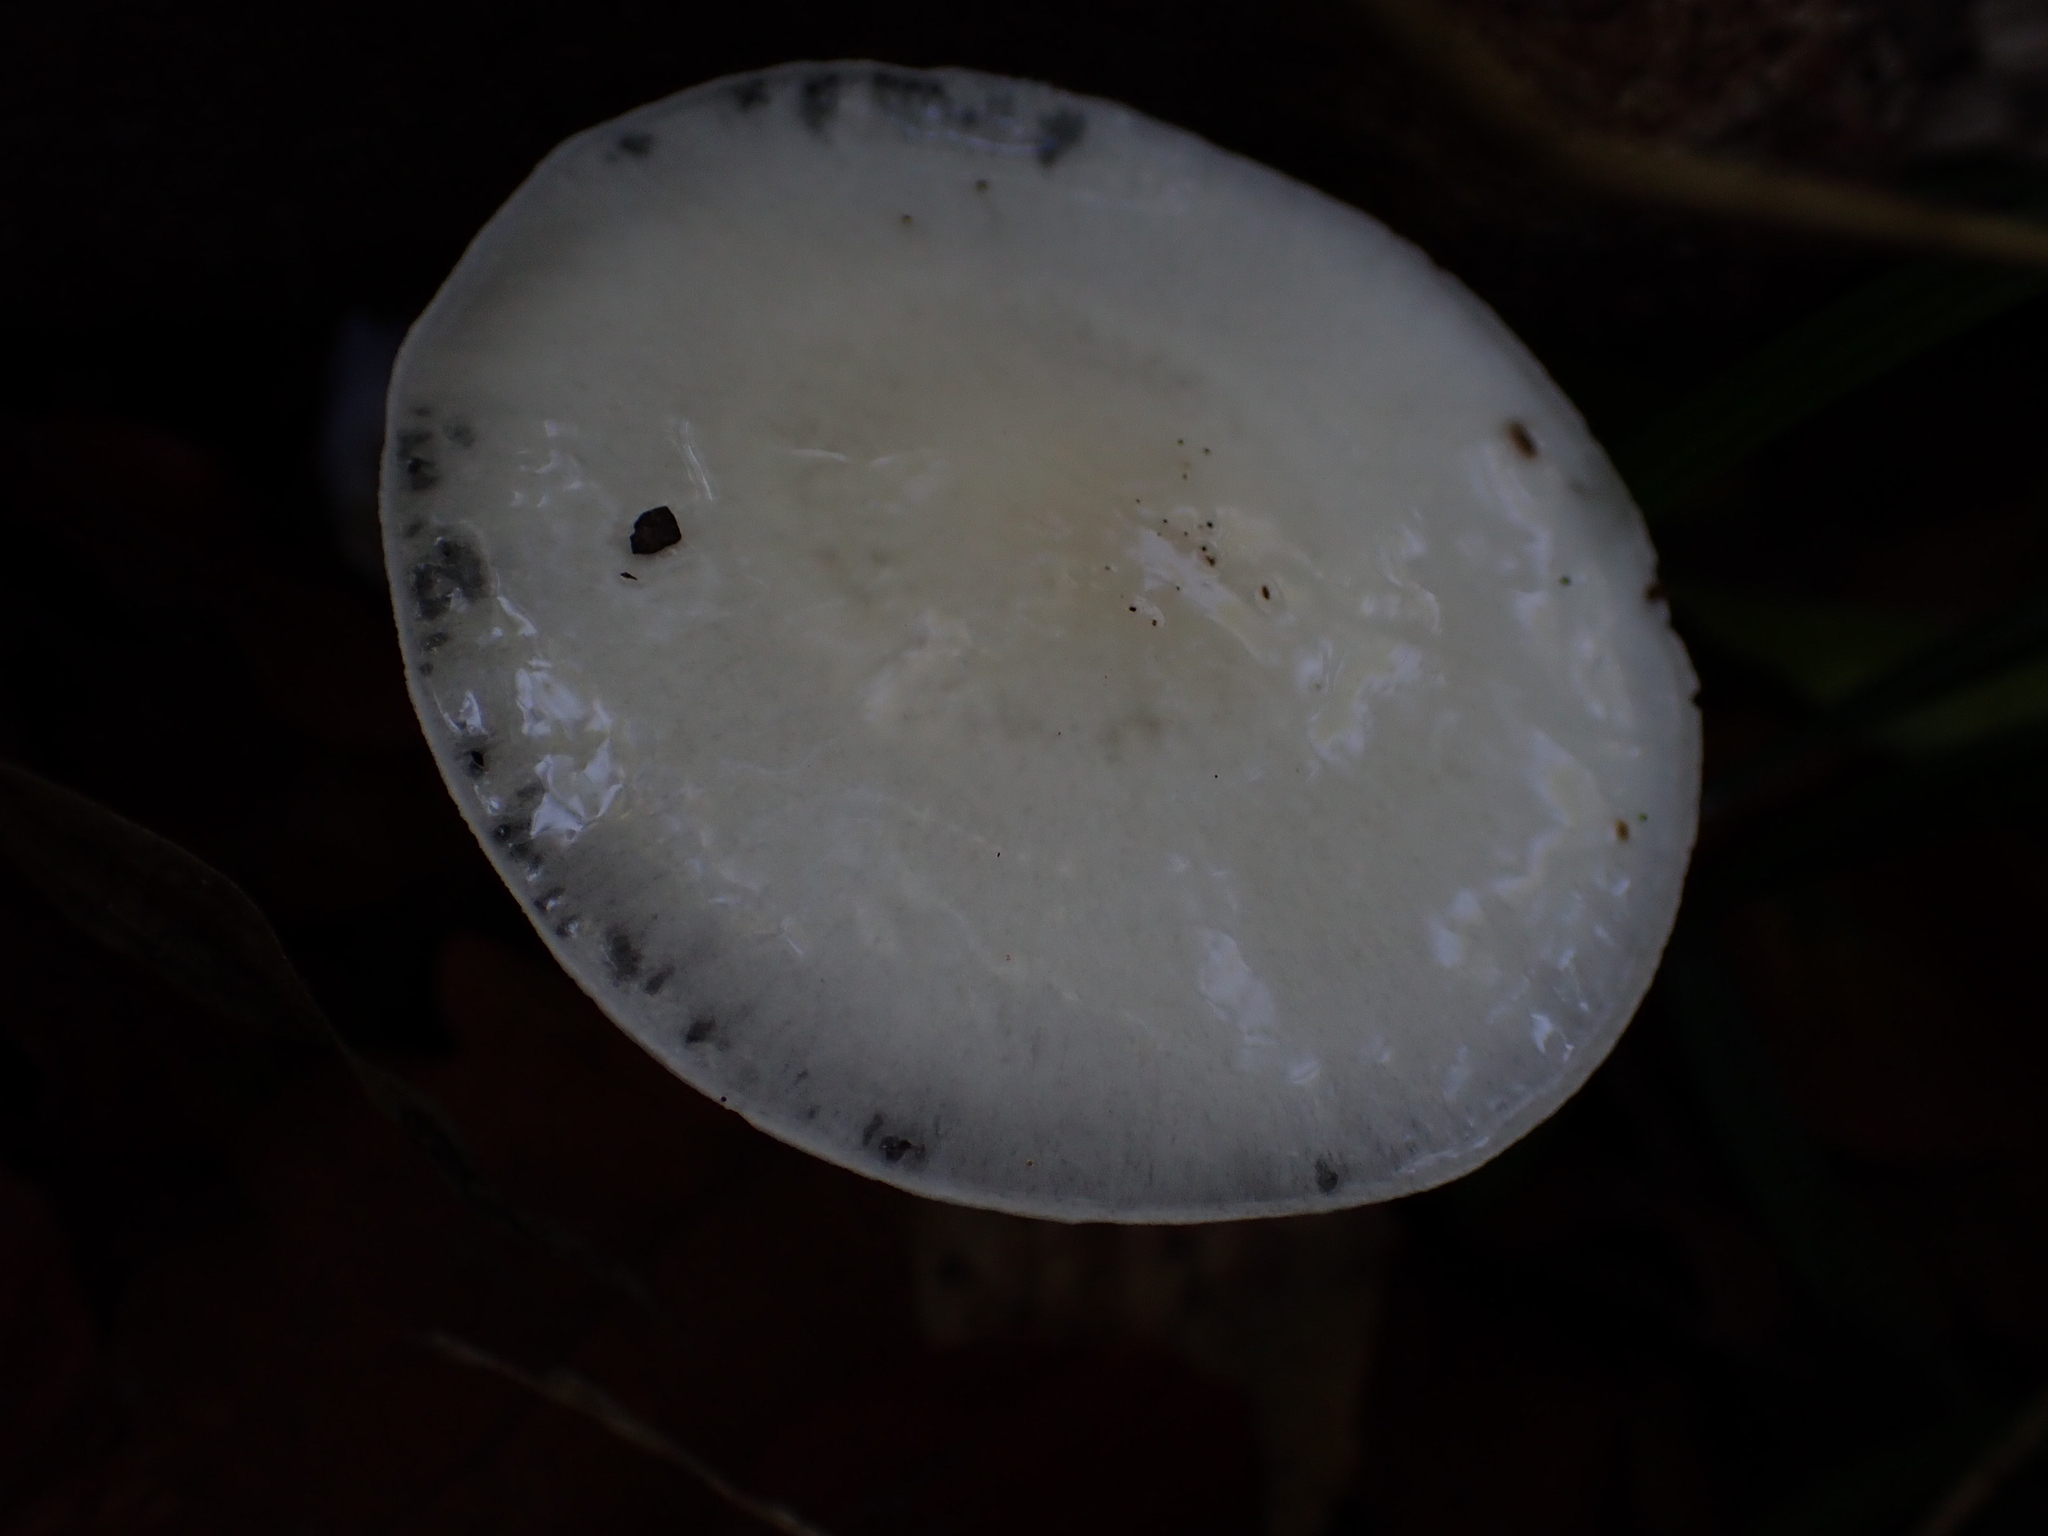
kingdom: Fungi
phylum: Basidiomycota
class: Agaricomycetes
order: Agaricales
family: Physalacriaceae
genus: Mucidula
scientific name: Mucidula mucida
